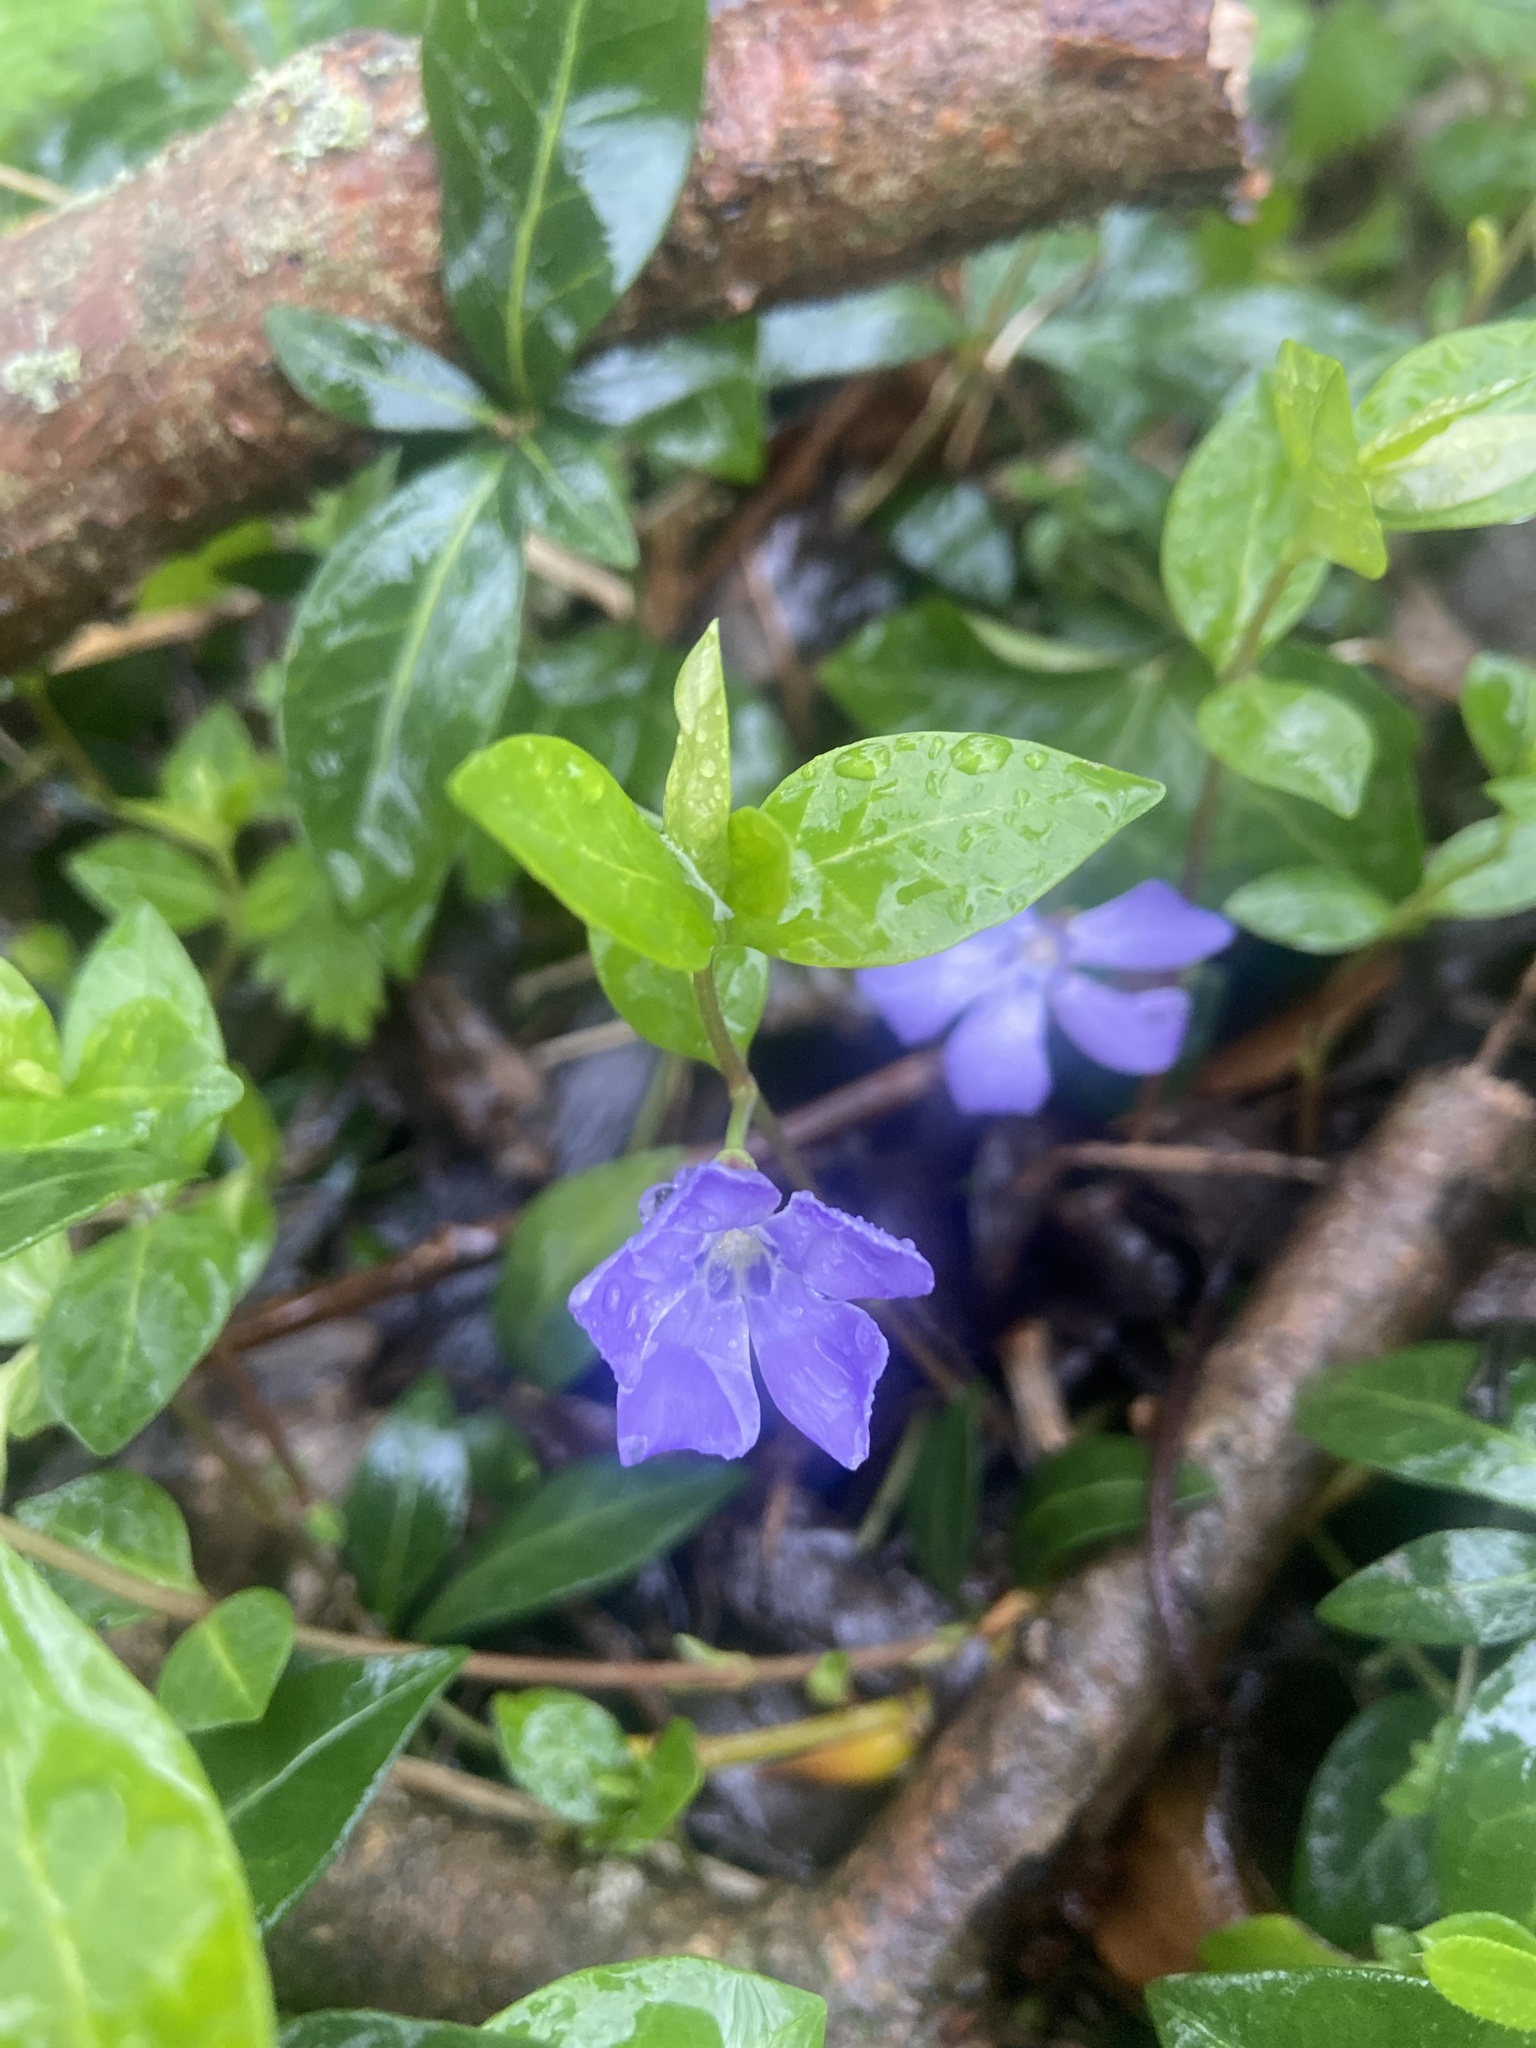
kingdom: Plantae
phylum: Tracheophyta
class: Magnoliopsida
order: Gentianales
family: Apocynaceae
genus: Vinca
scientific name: Vinca minor
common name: Lesser periwinkle
